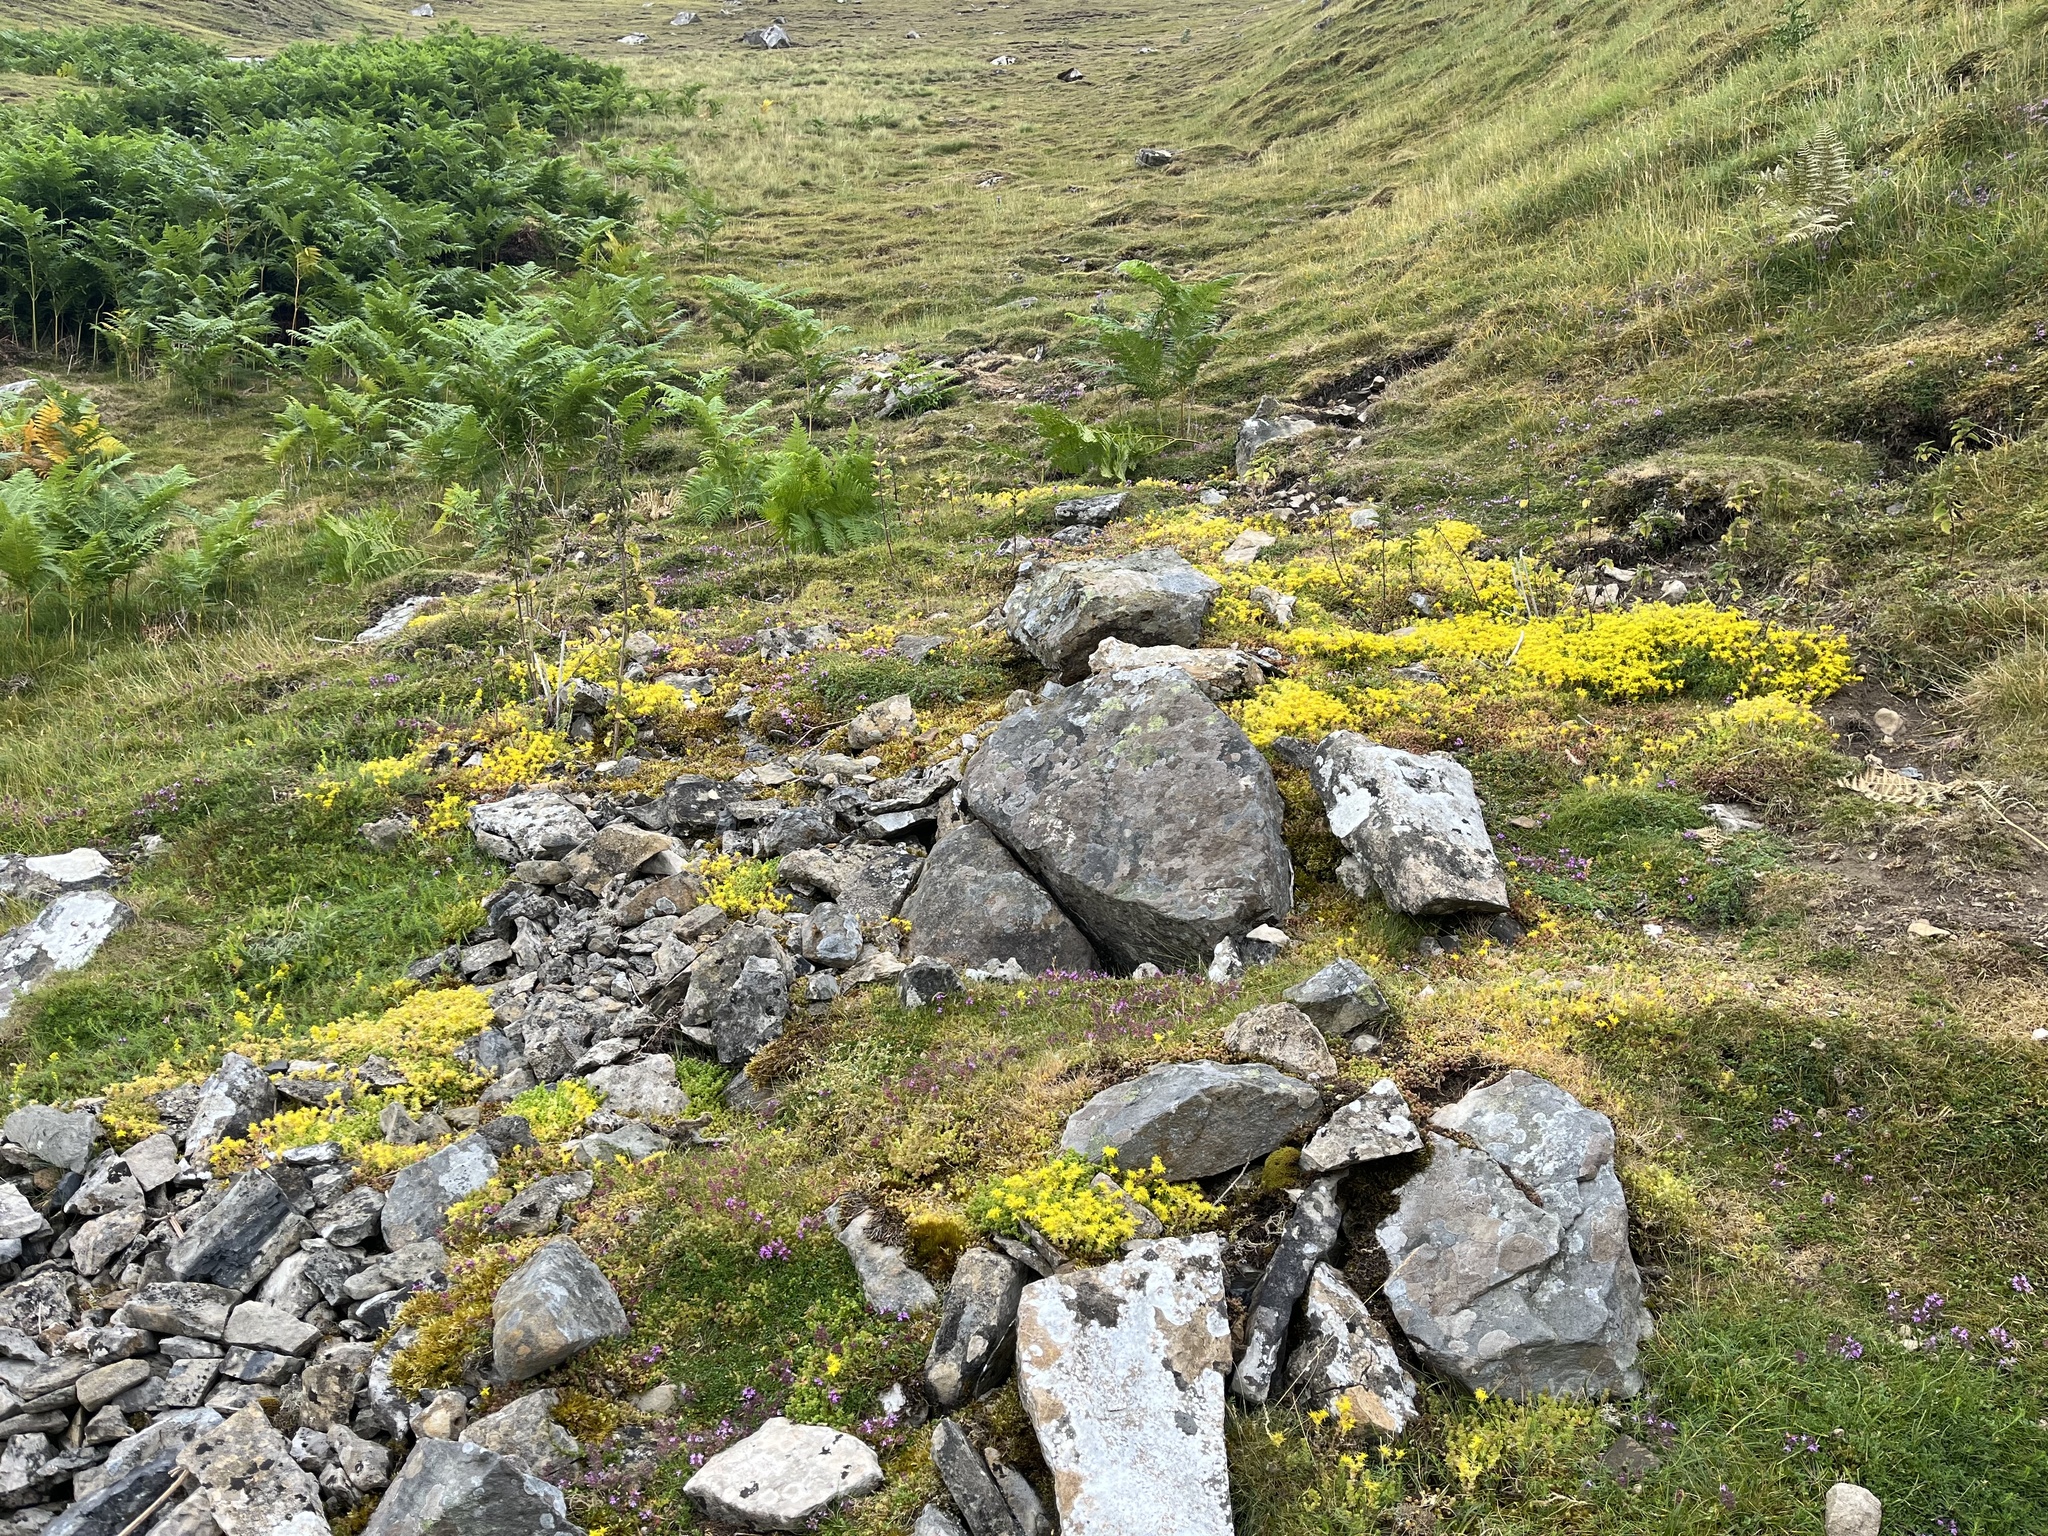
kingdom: Plantae
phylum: Tracheophyta
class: Magnoliopsida
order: Saxifragales
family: Crassulaceae
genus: Sedum
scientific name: Sedum acre
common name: Biting stonecrop
